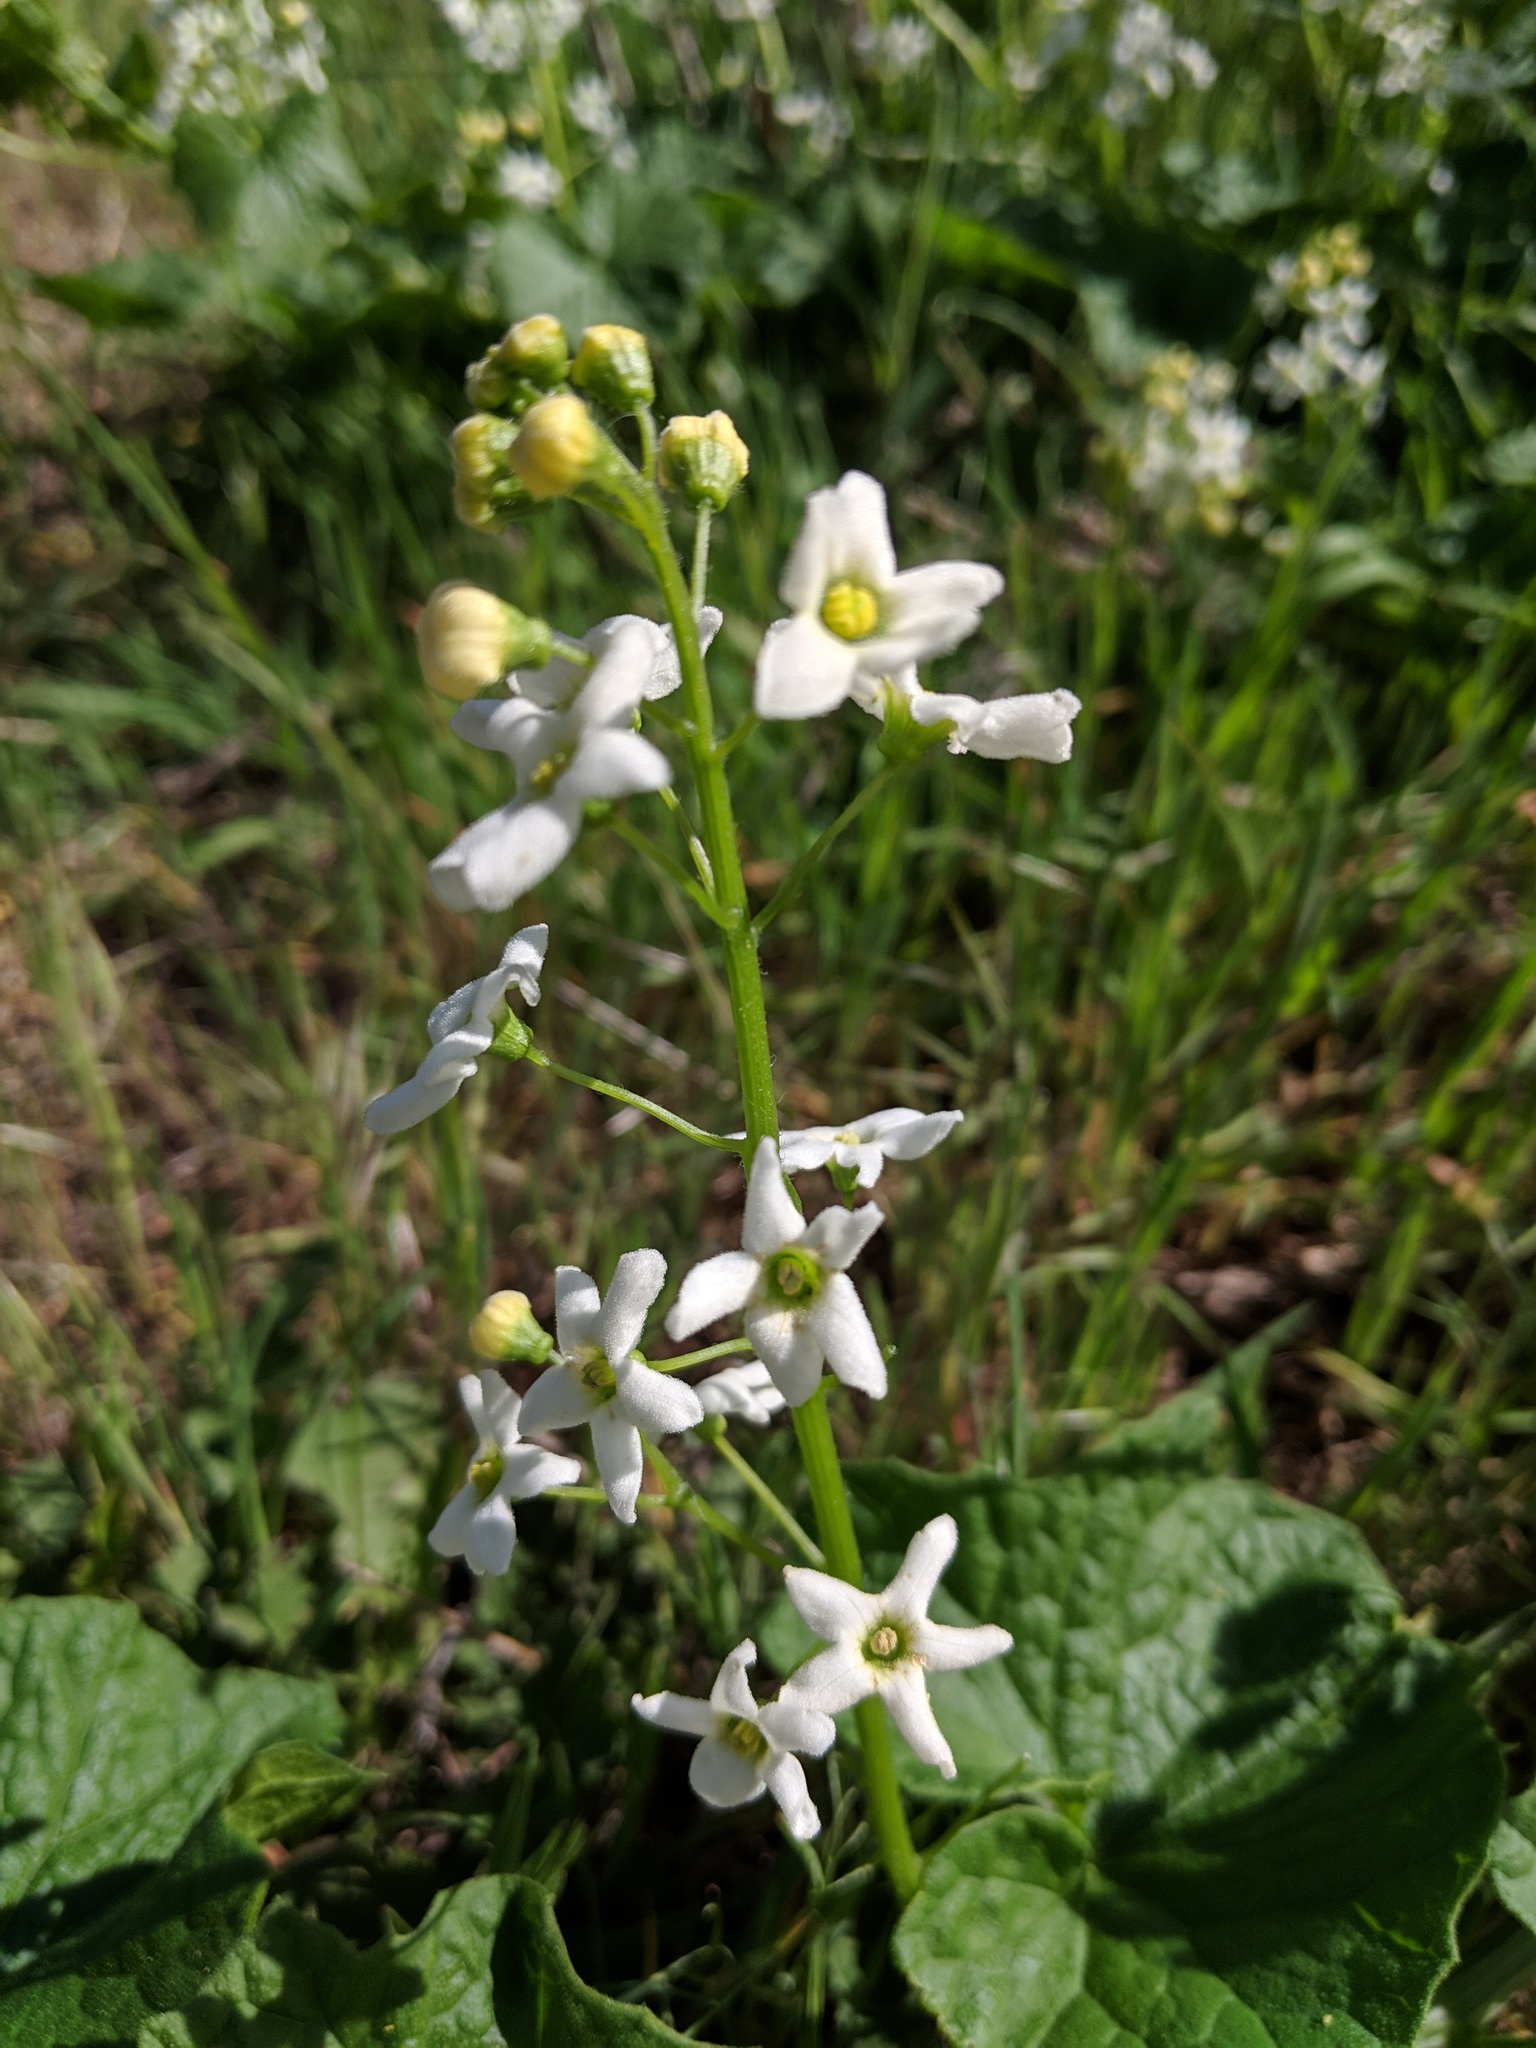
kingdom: Plantae
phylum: Tracheophyta
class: Magnoliopsida
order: Cucurbitales
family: Cucurbitaceae
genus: Marah
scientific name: Marah oregana
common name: Coastal manroot
